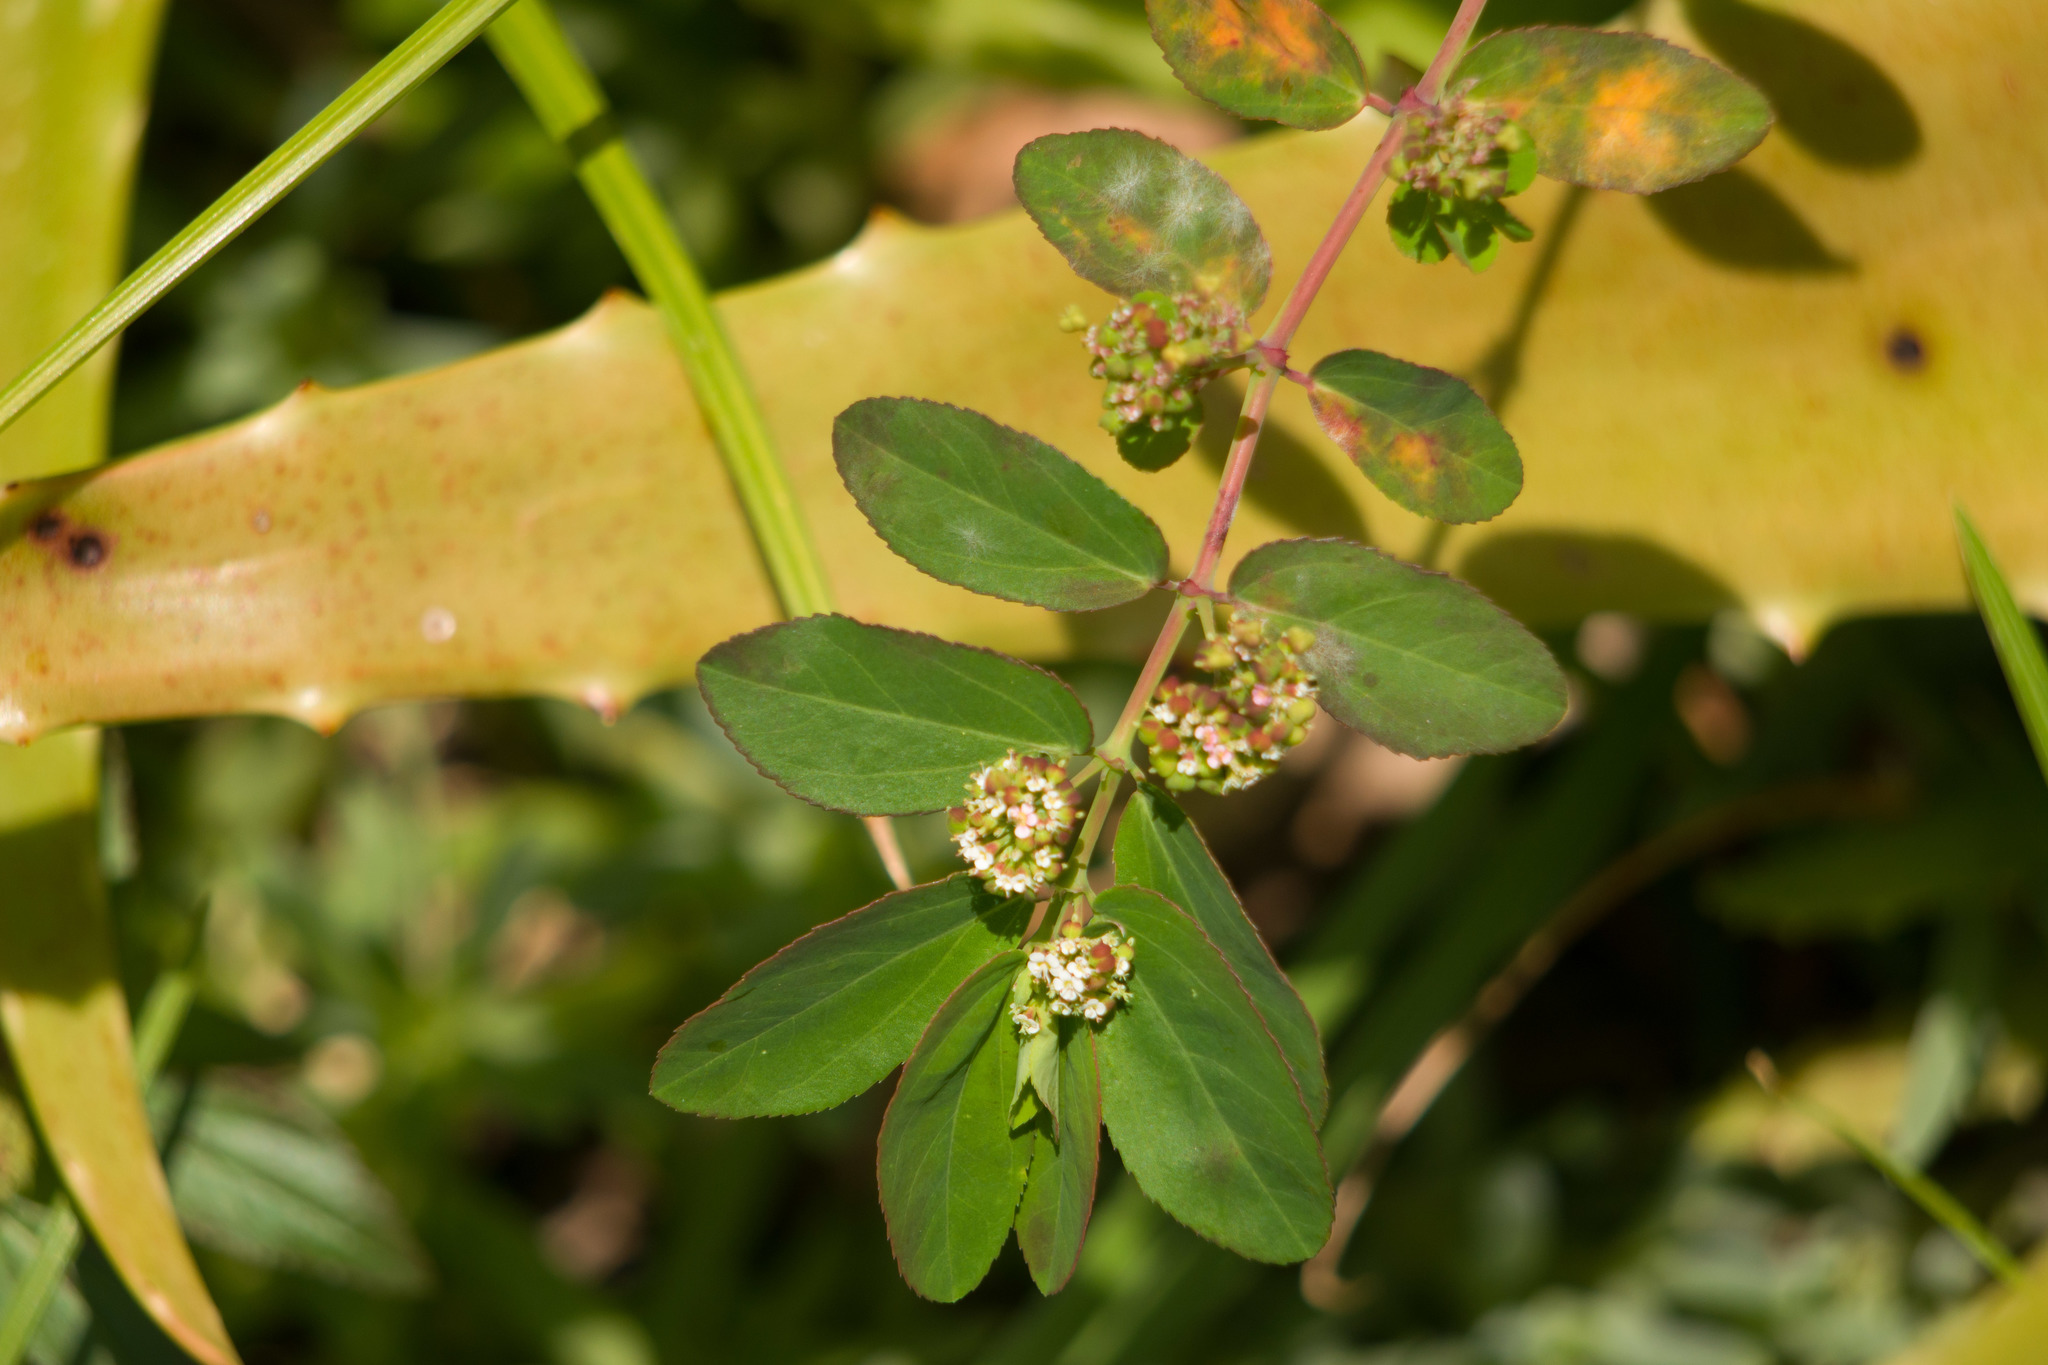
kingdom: Plantae
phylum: Tracheophyta
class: Magnoliopsida
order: Malpighiales
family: Euphorbiaceae
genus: Euphorbia
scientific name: Euphorbia hypericifolia
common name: Graceful sandmat
